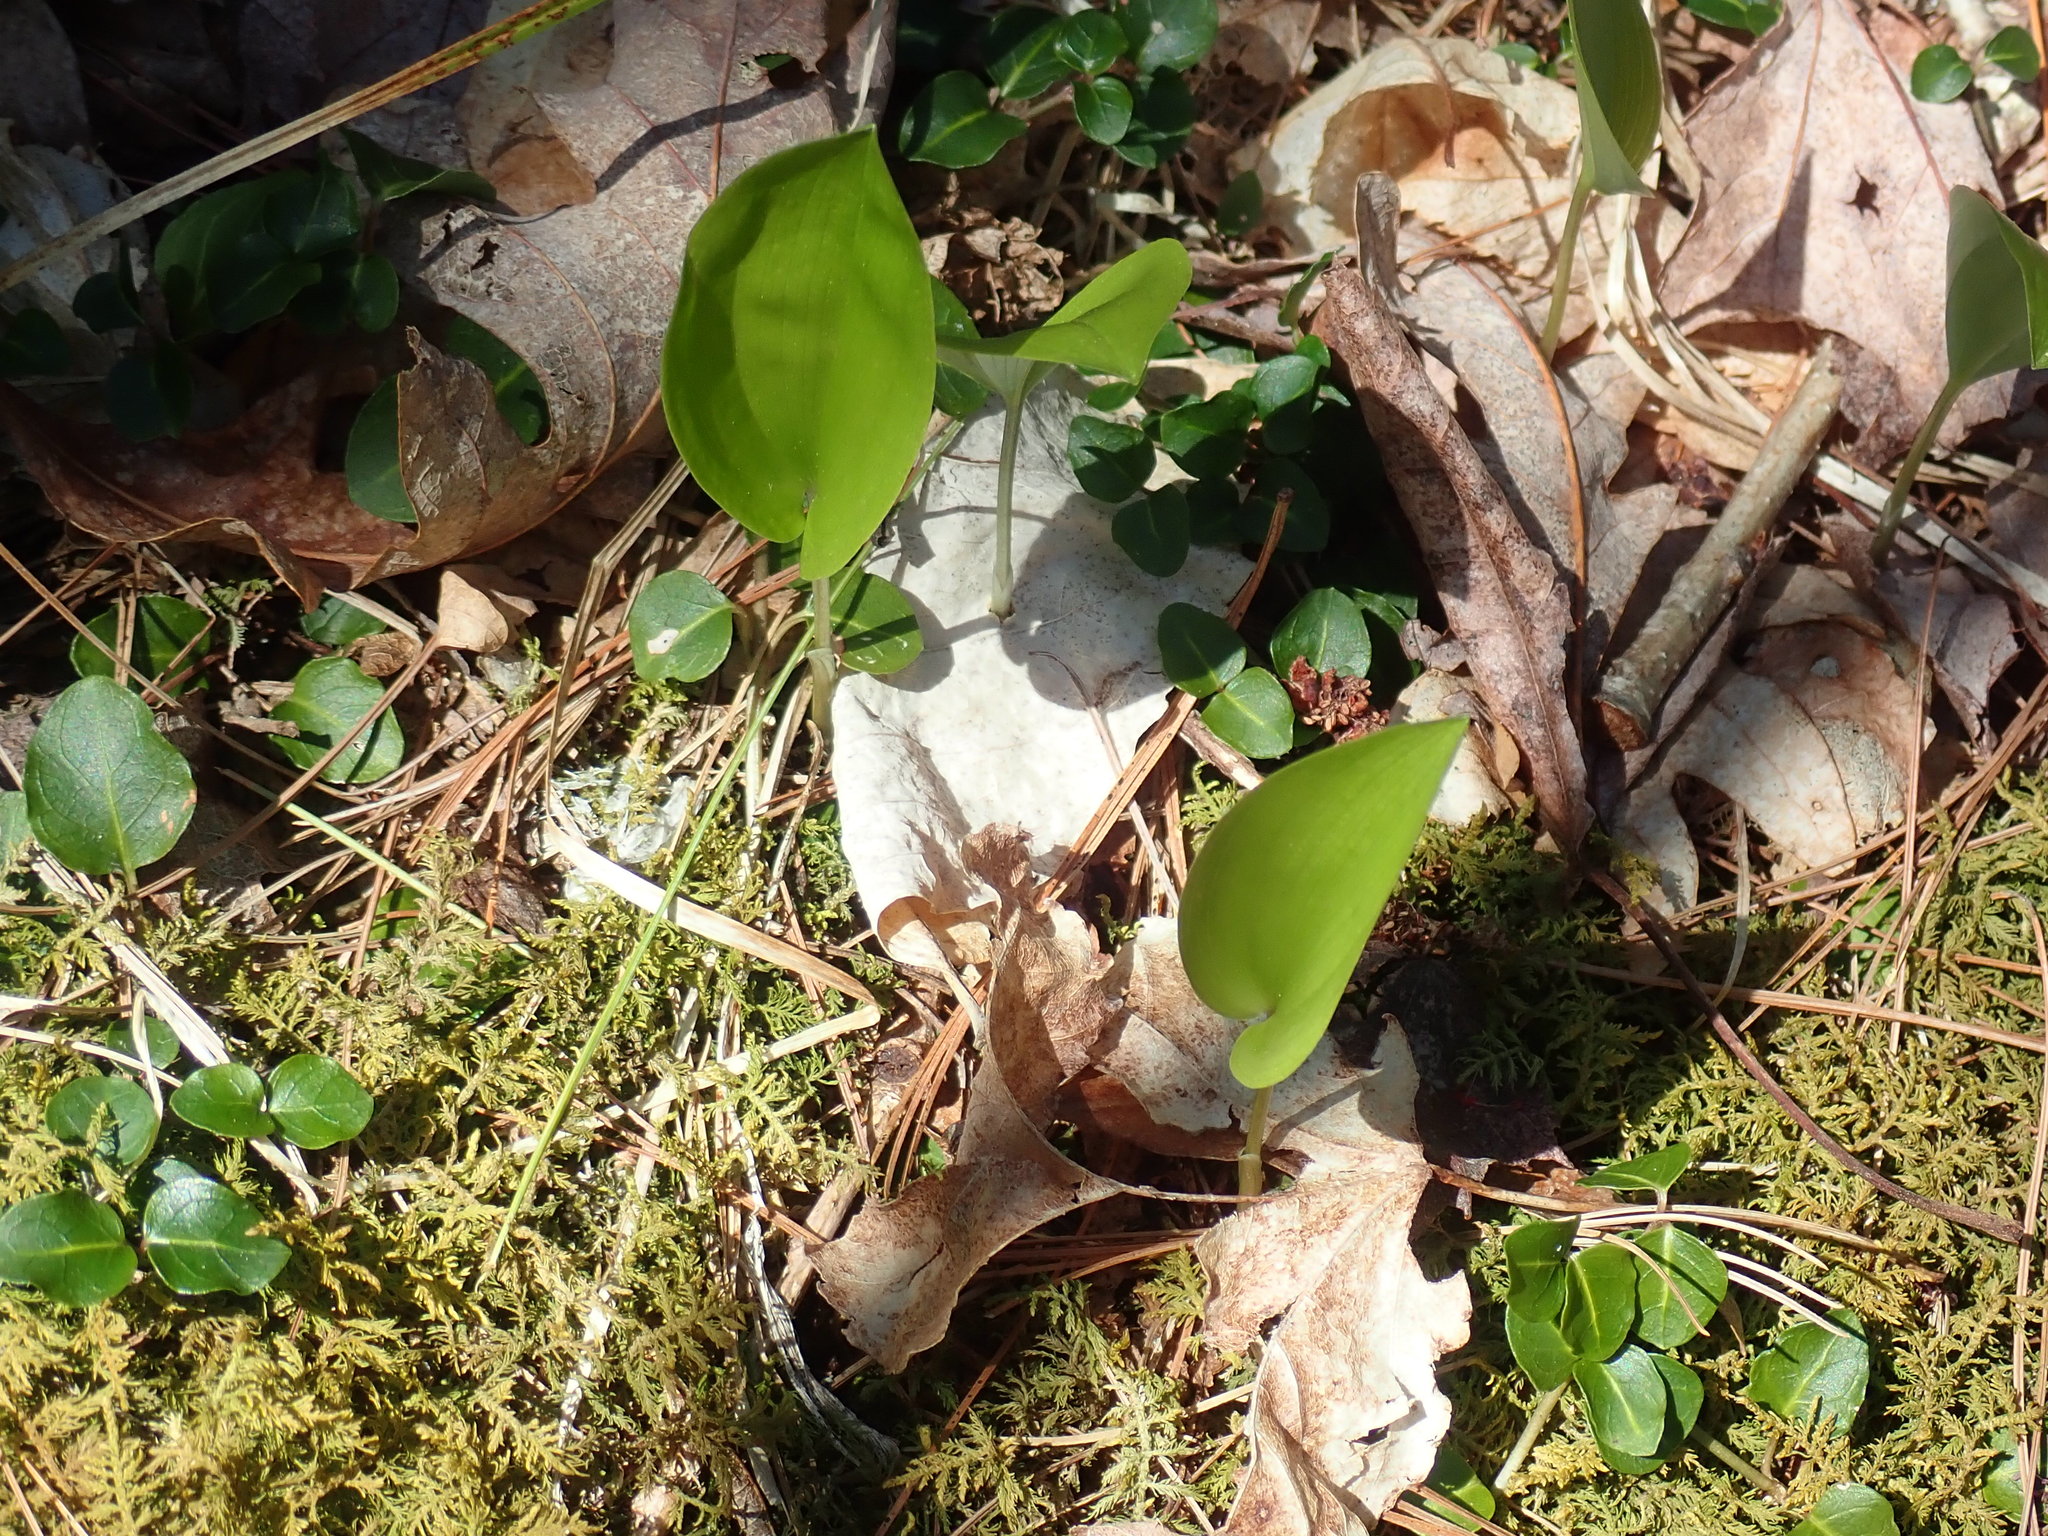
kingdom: Plantae
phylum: Tracheophyta
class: Liliopsida
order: Asparagales
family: Asparagaceae
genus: Maianthemum
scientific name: Maianthemum canadense
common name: False lily-of-the-valley
